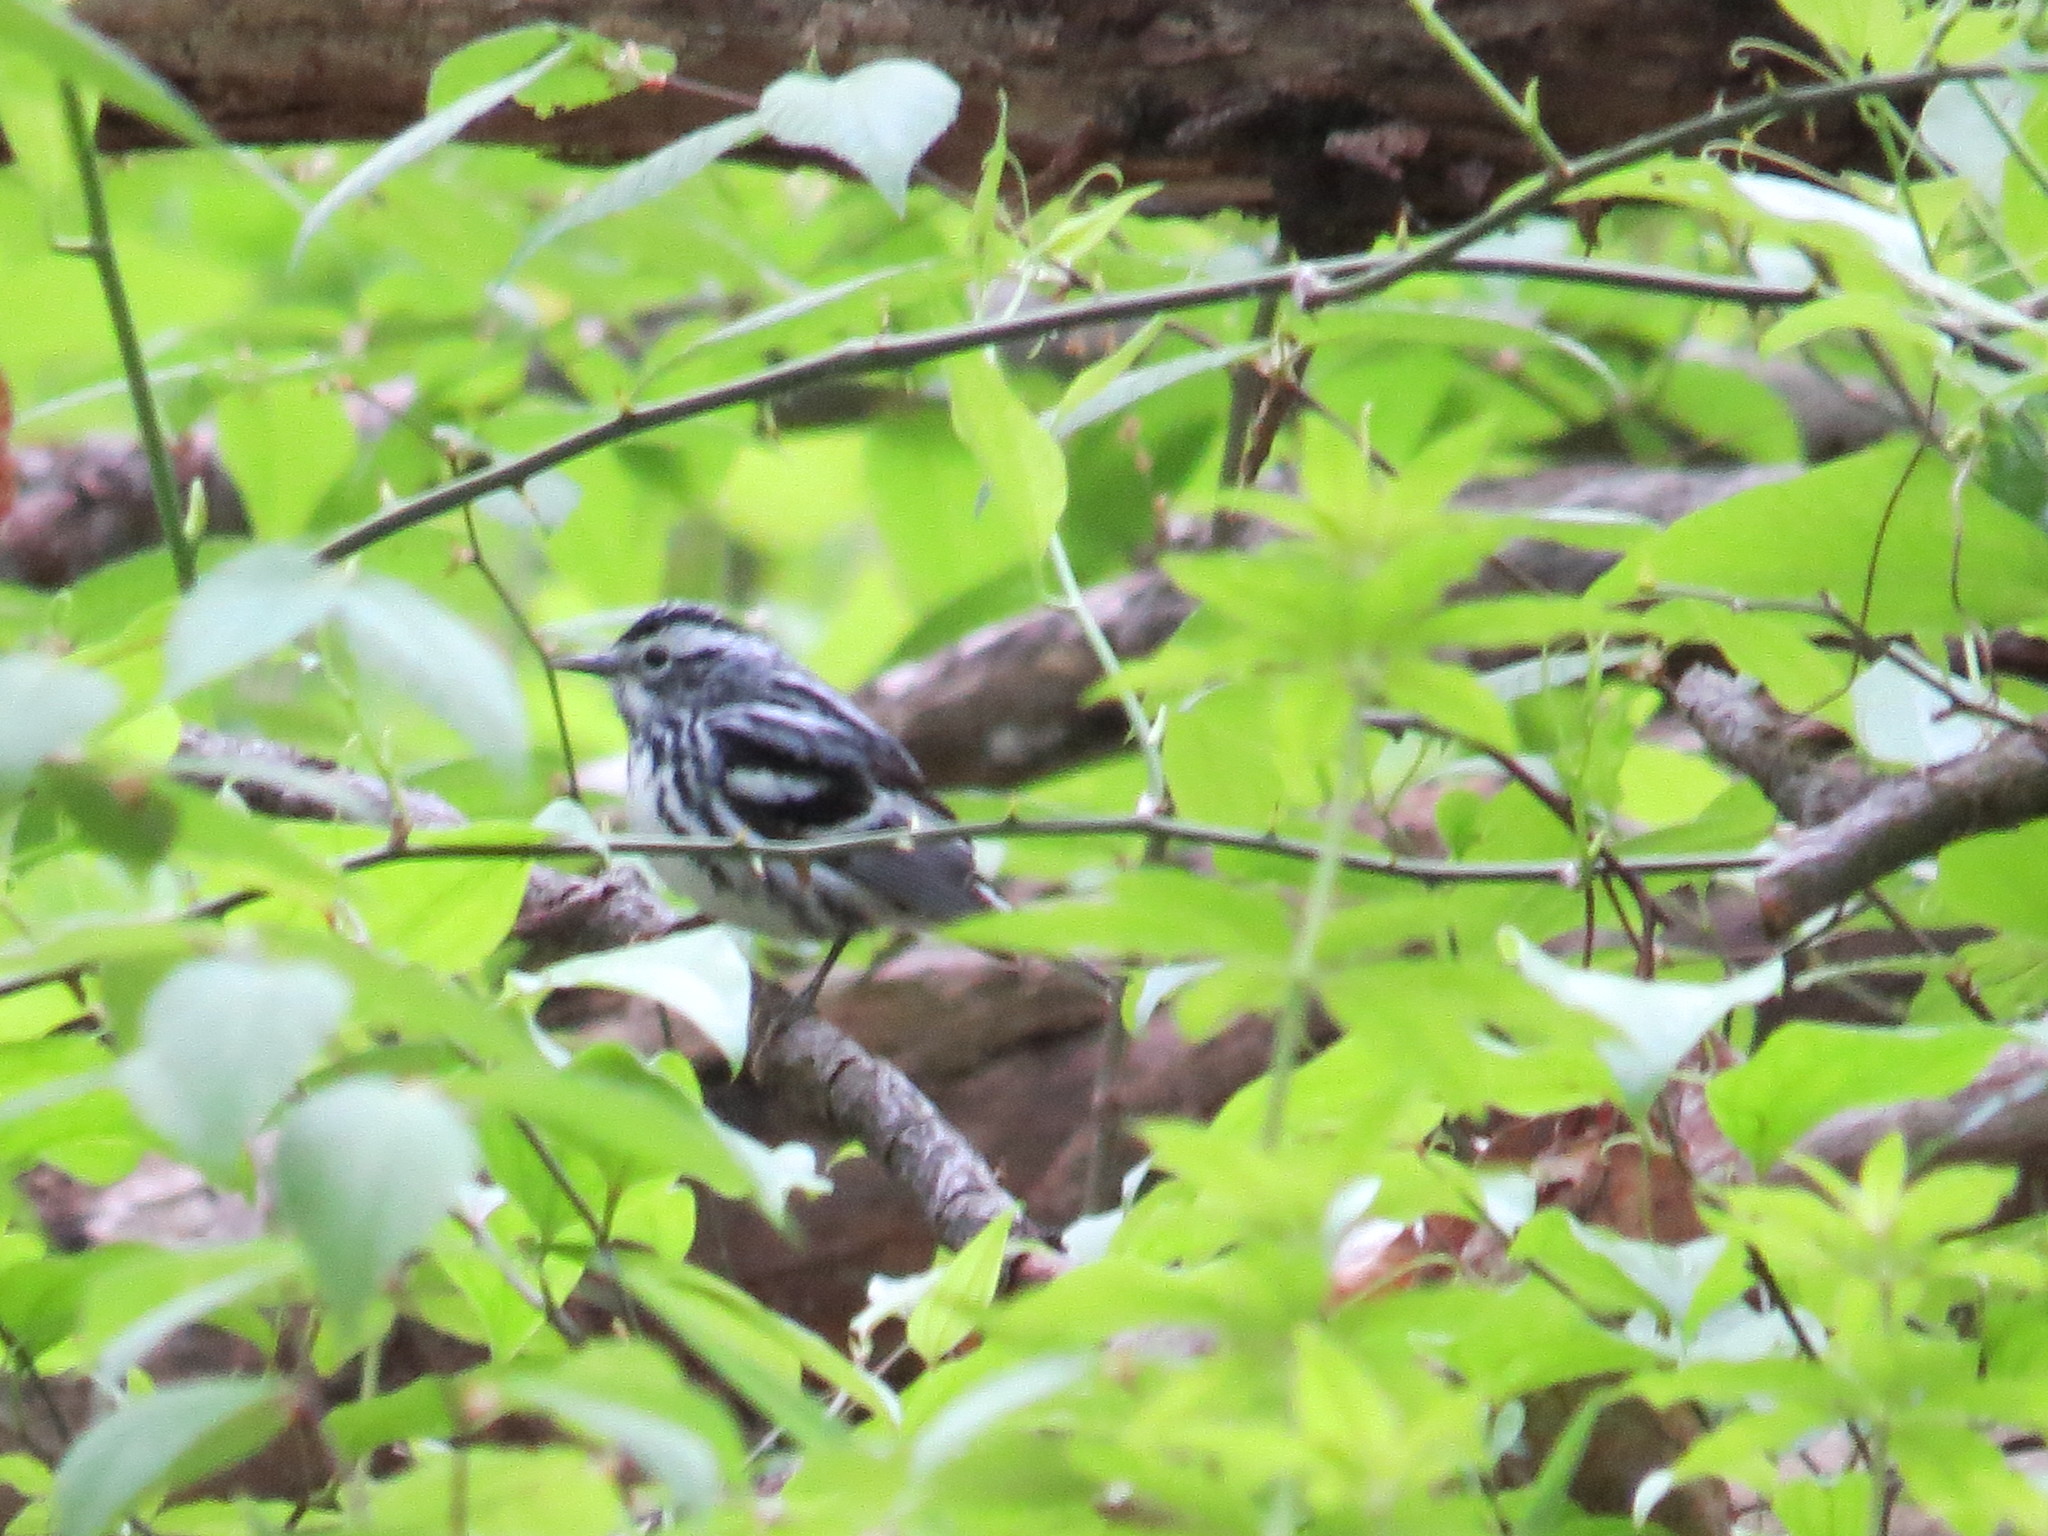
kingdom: Animalia
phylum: Chordata
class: Aves
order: Passeriformes
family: Parulidae
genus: Mniotilta
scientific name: Mniotilta varia
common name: Black-and-white warbler
